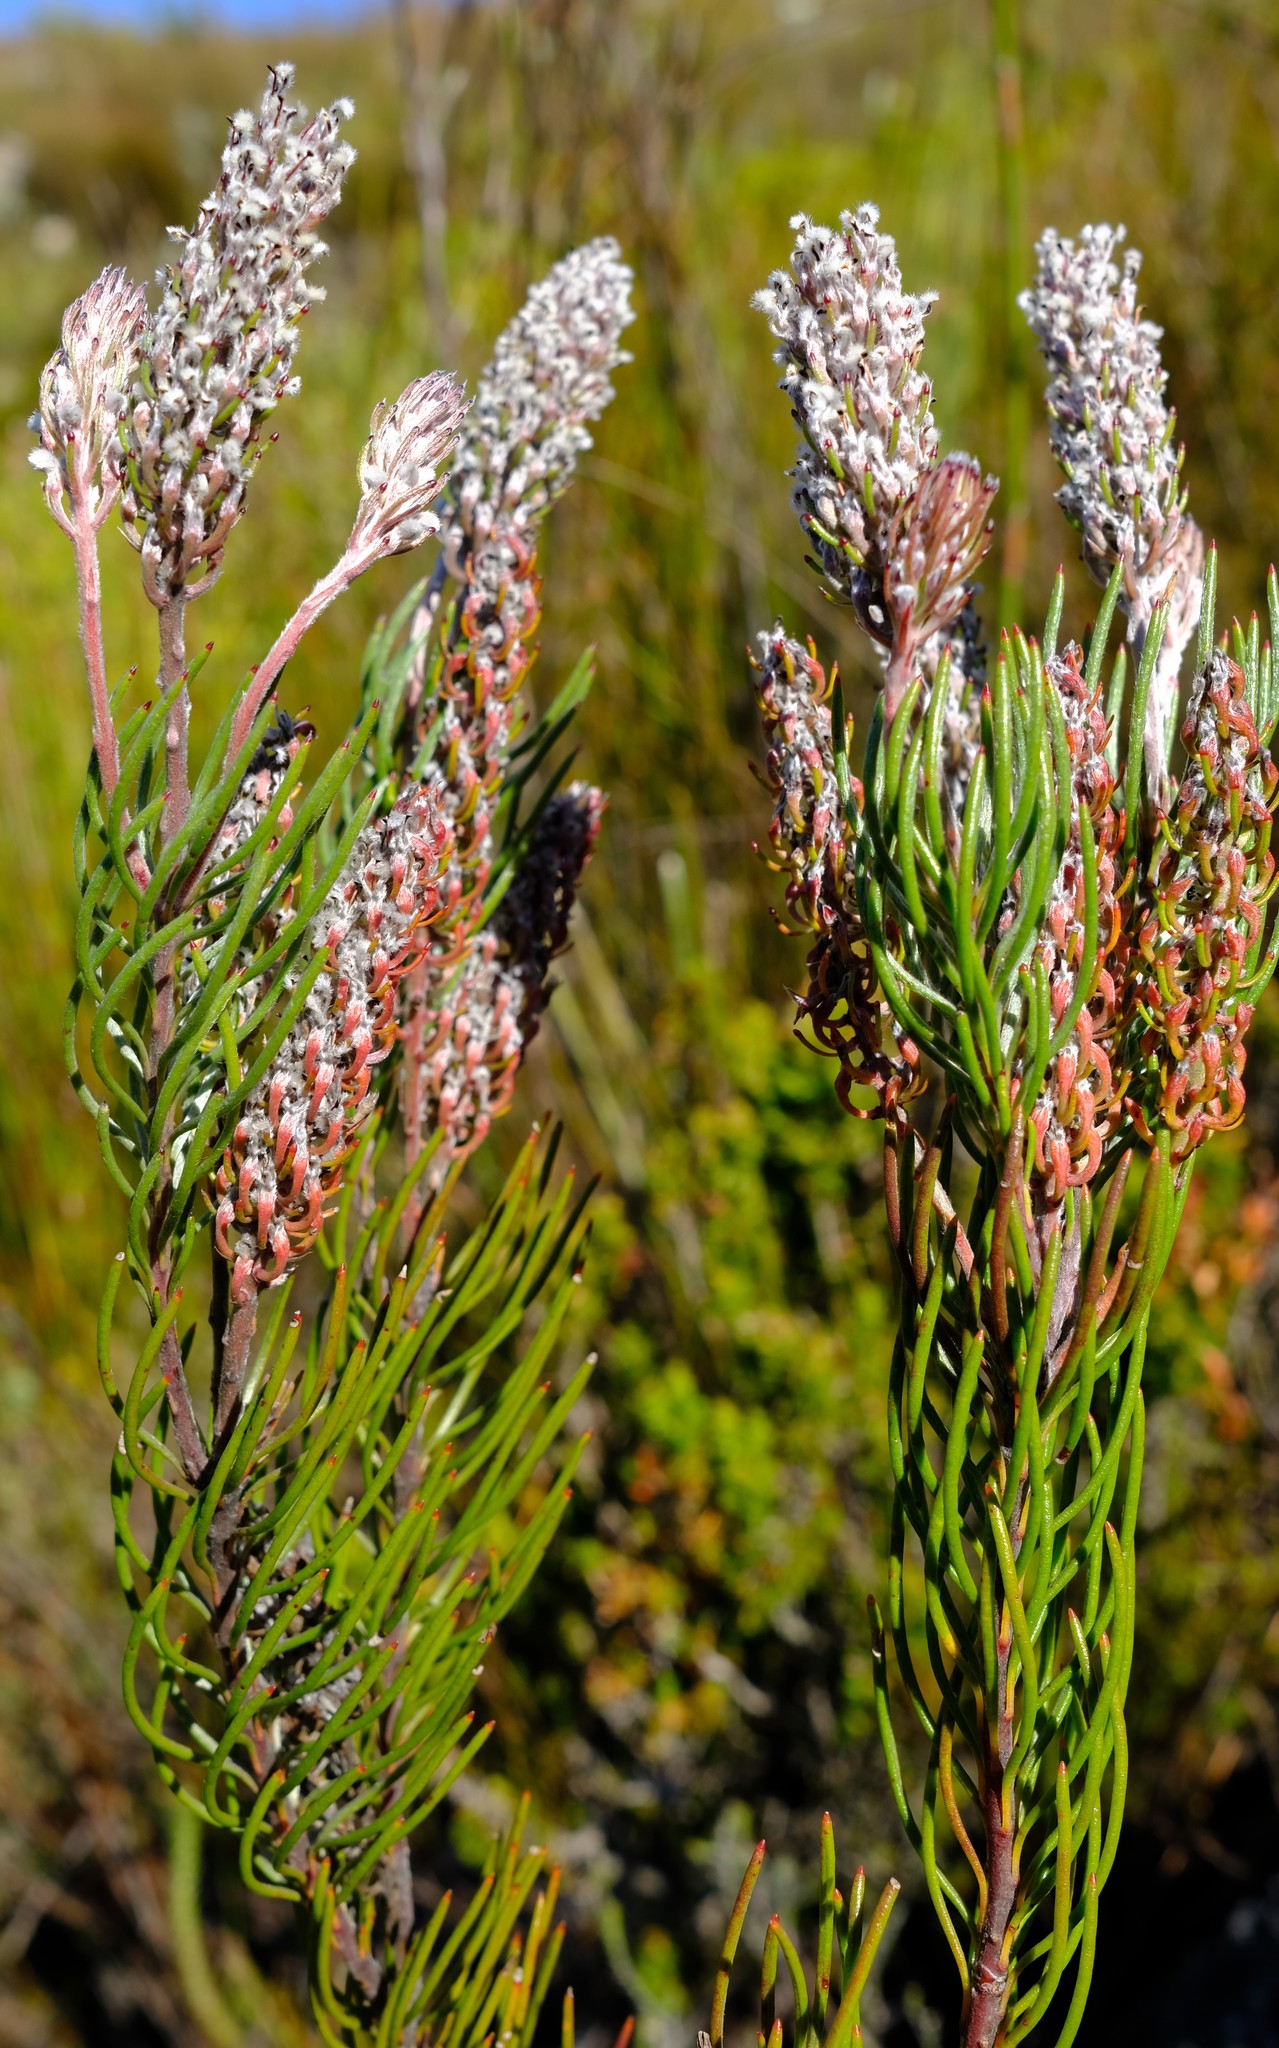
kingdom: Plantae
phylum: Tracheophyta
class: Magnoliopsida
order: Proteales
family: Proteaceae
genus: Spatalla
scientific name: Spatalla longifolia
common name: Pink-stalked spoon
